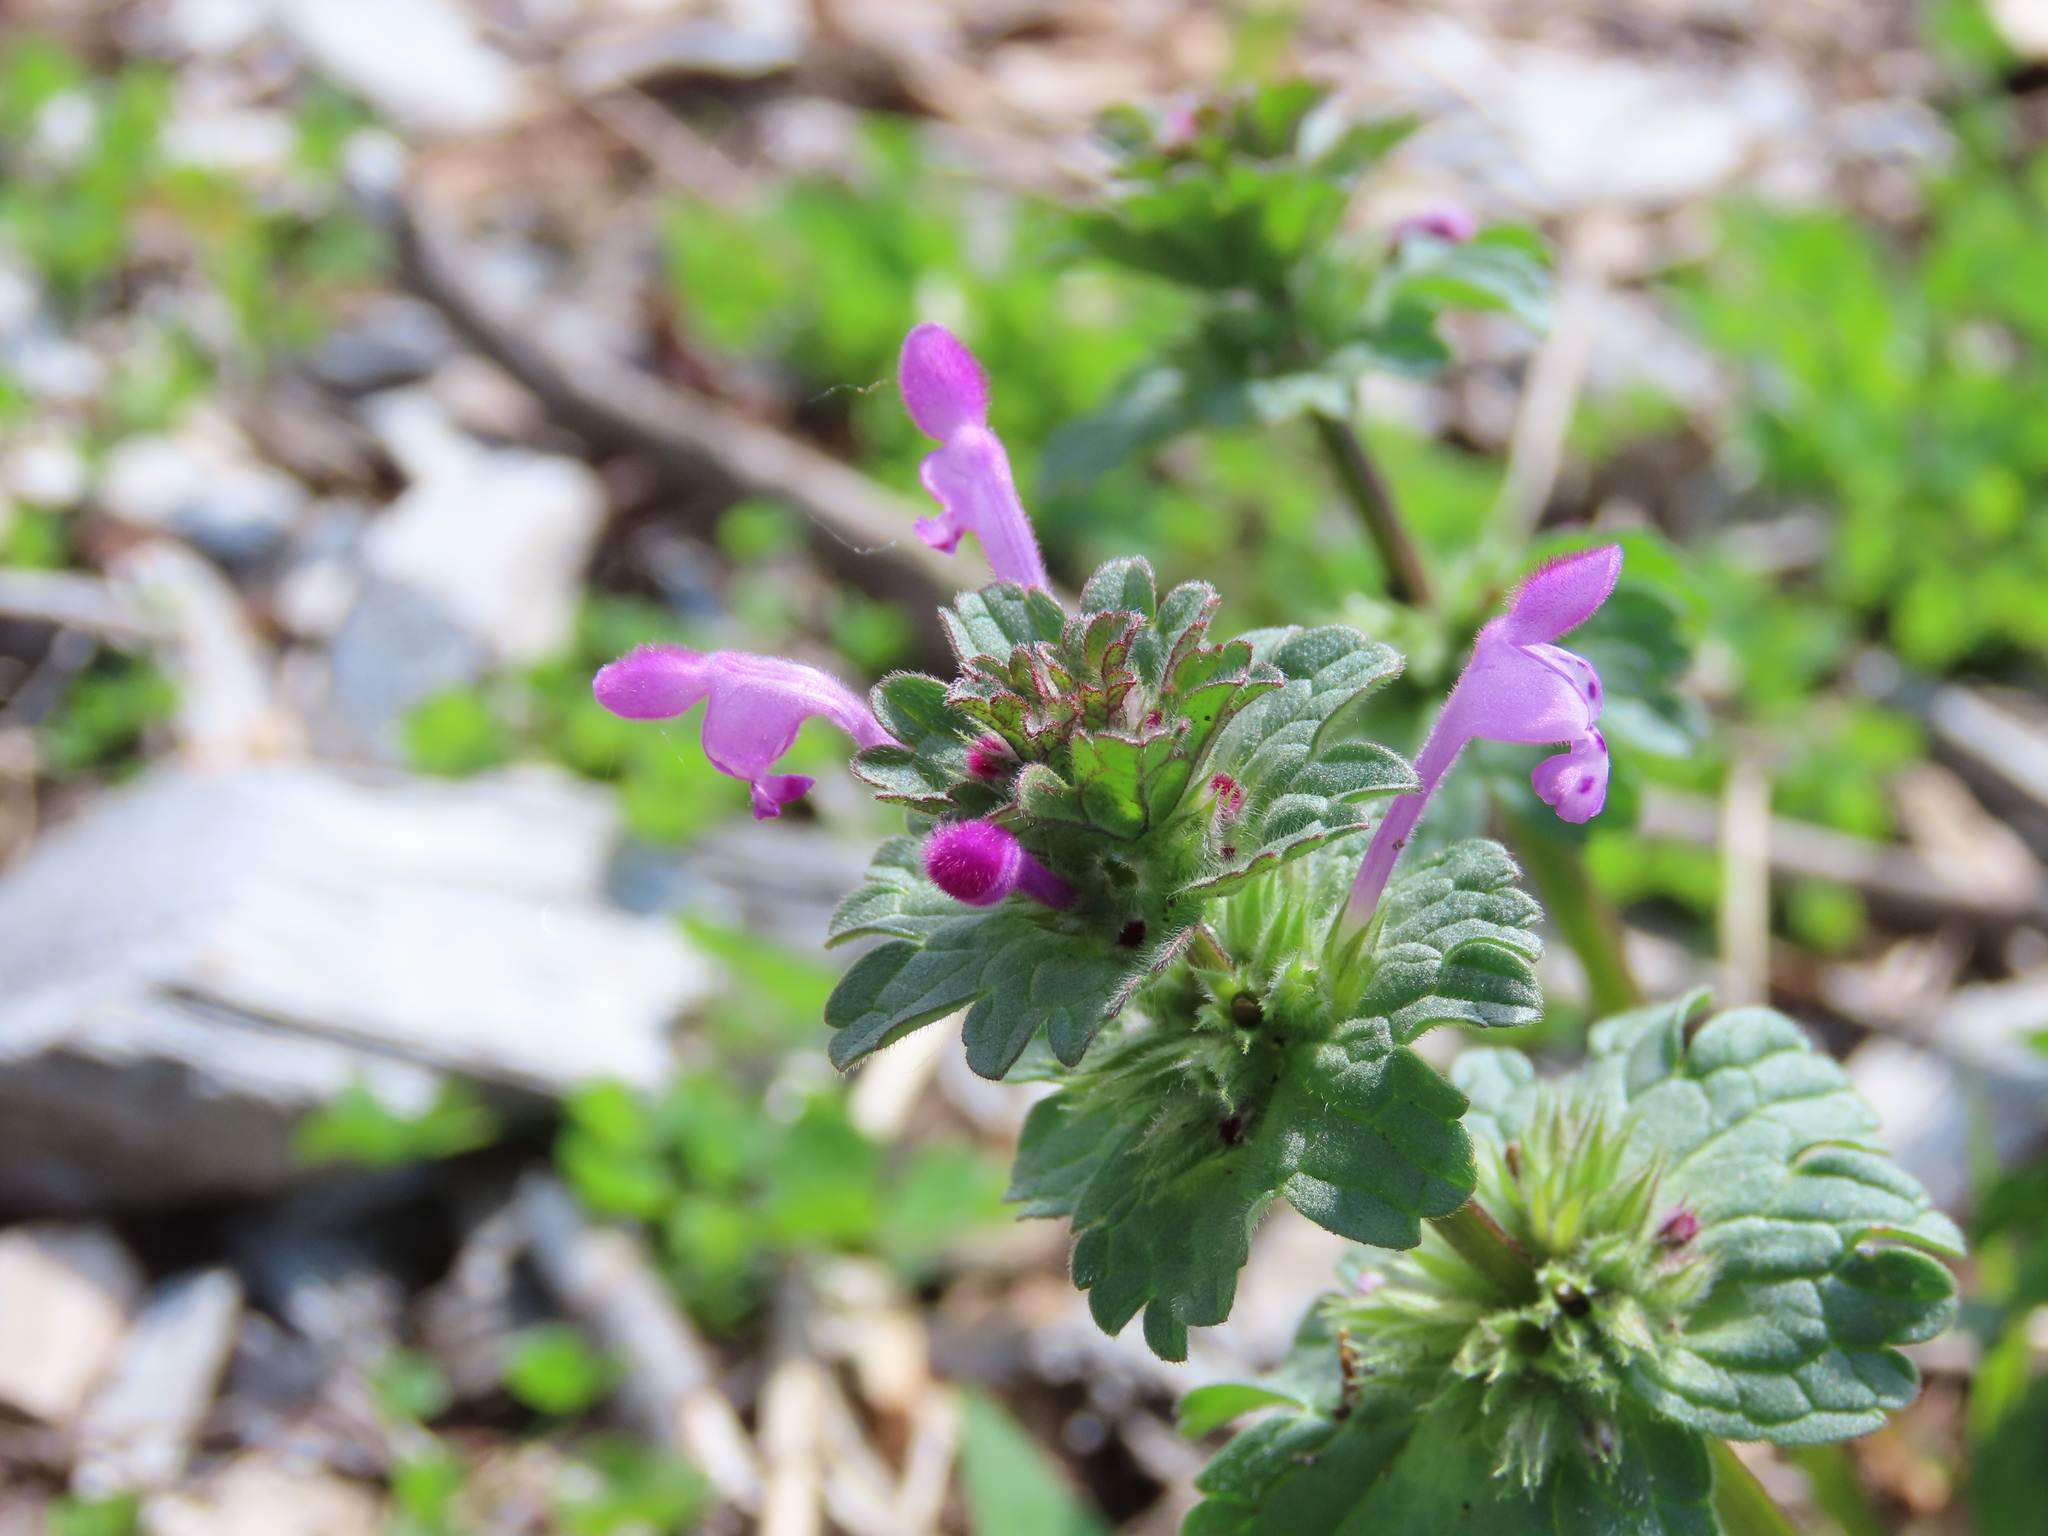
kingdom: Plantae
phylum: Tracheophyta
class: Magnoliopsida
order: Lamiales
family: Lamiaceae
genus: Lamium
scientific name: Lamium amplexicaule
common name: Henbit dead-nettle
